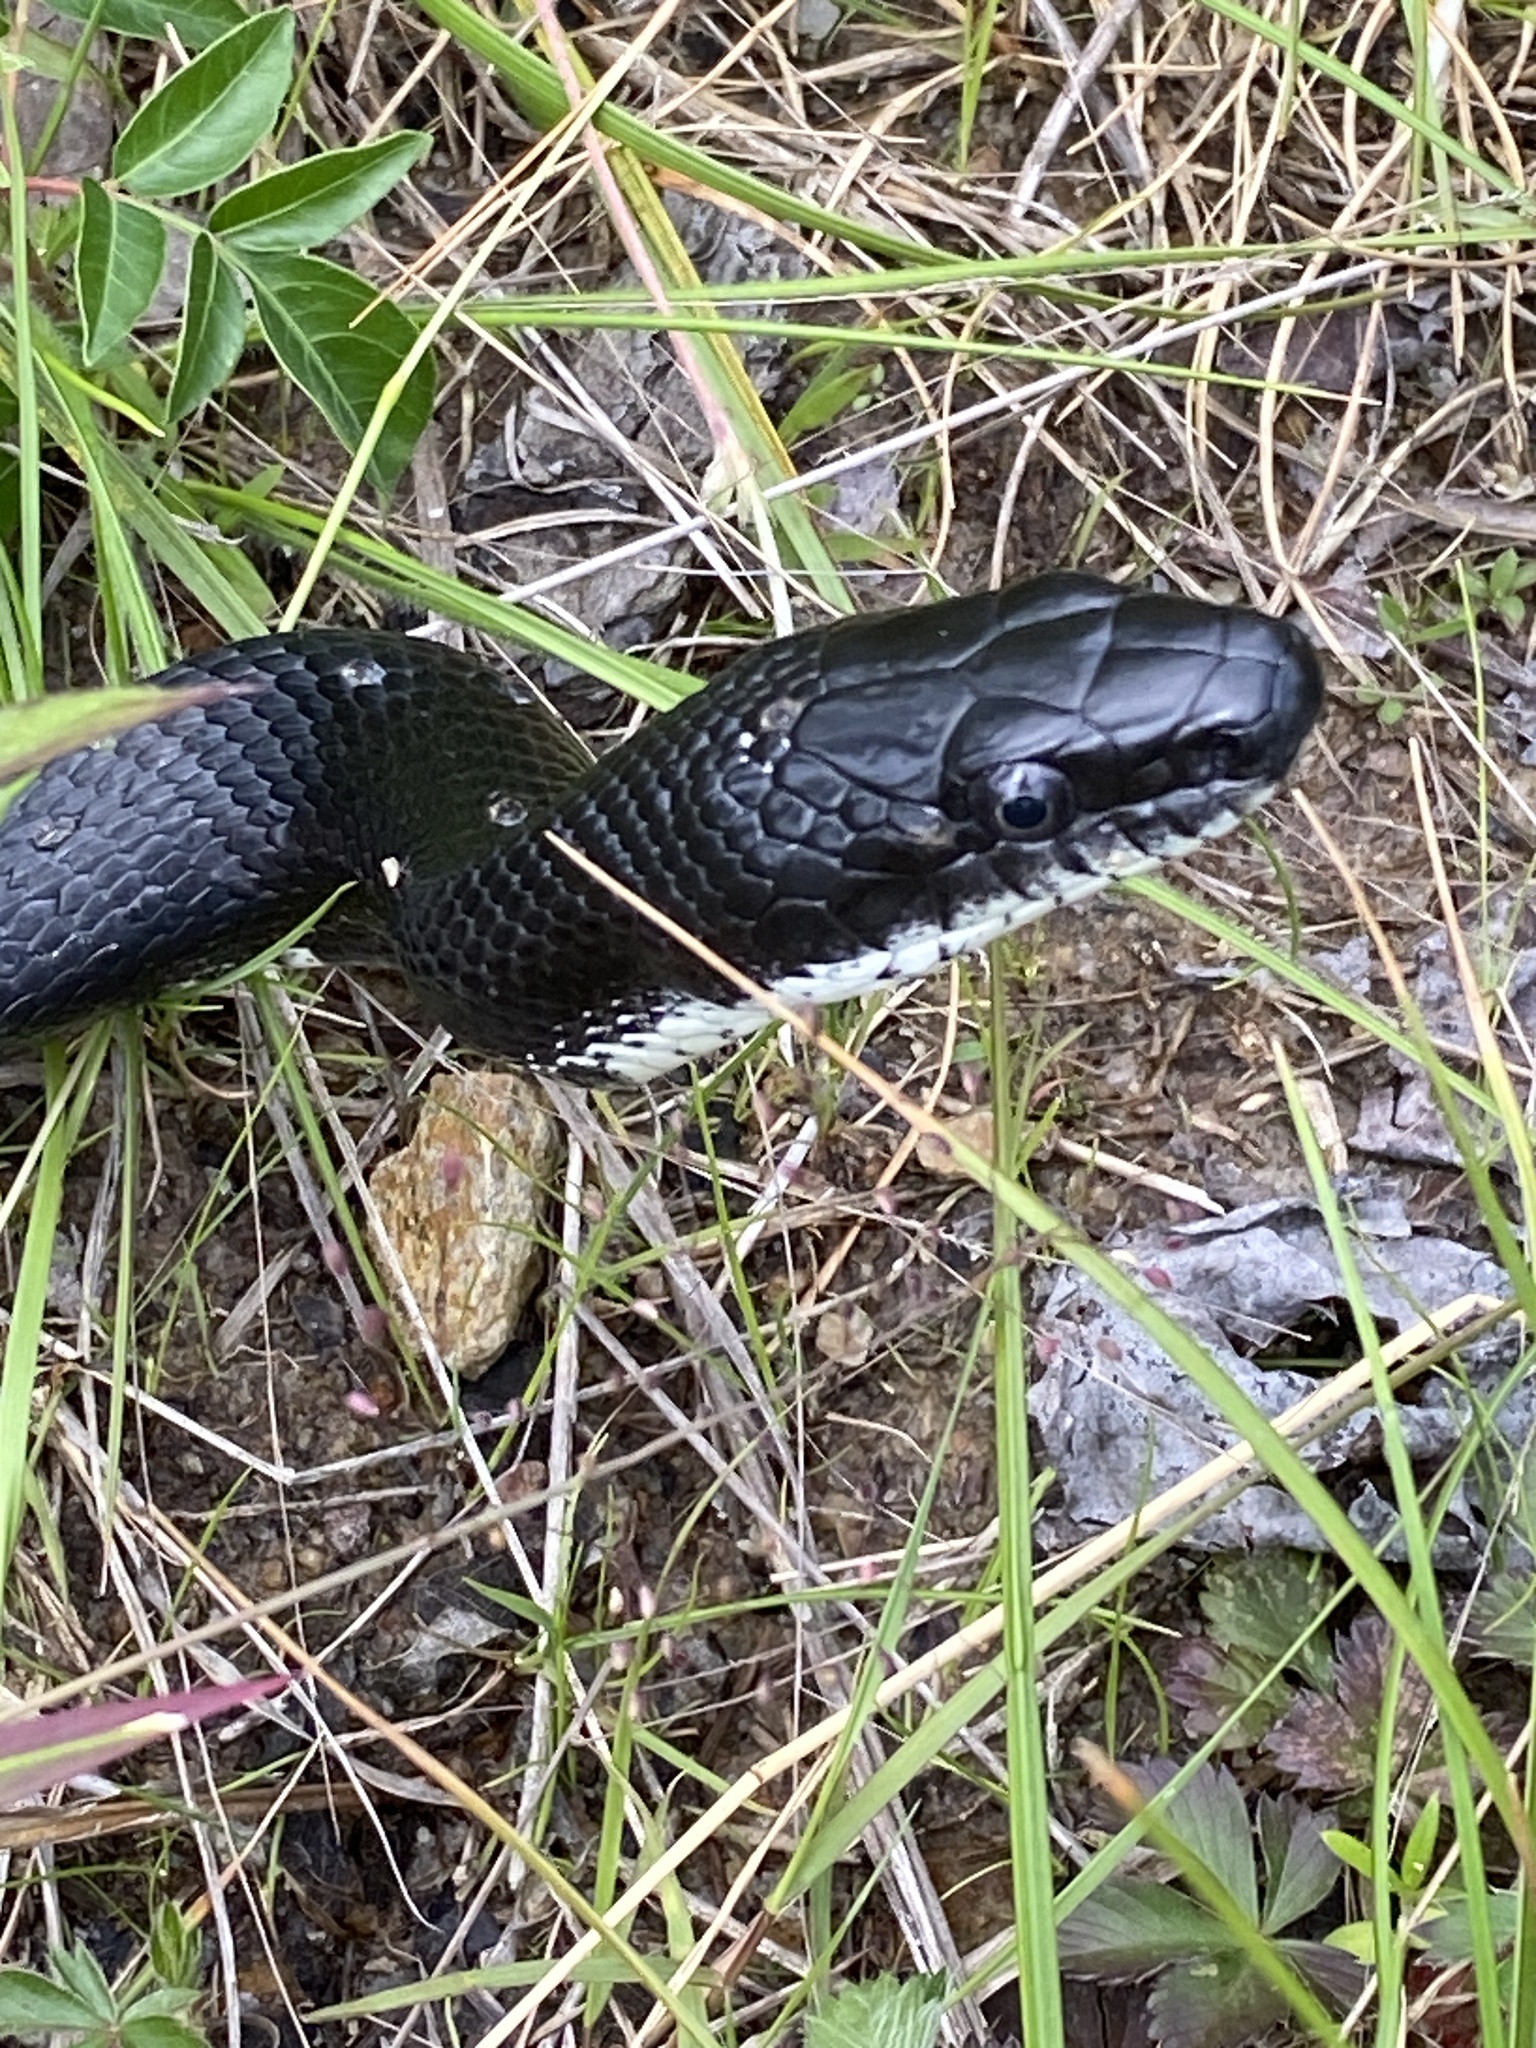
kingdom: Animalia
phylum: Chordata
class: Squamata
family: Colubridae
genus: Pantherophis
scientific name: Pantherophis
